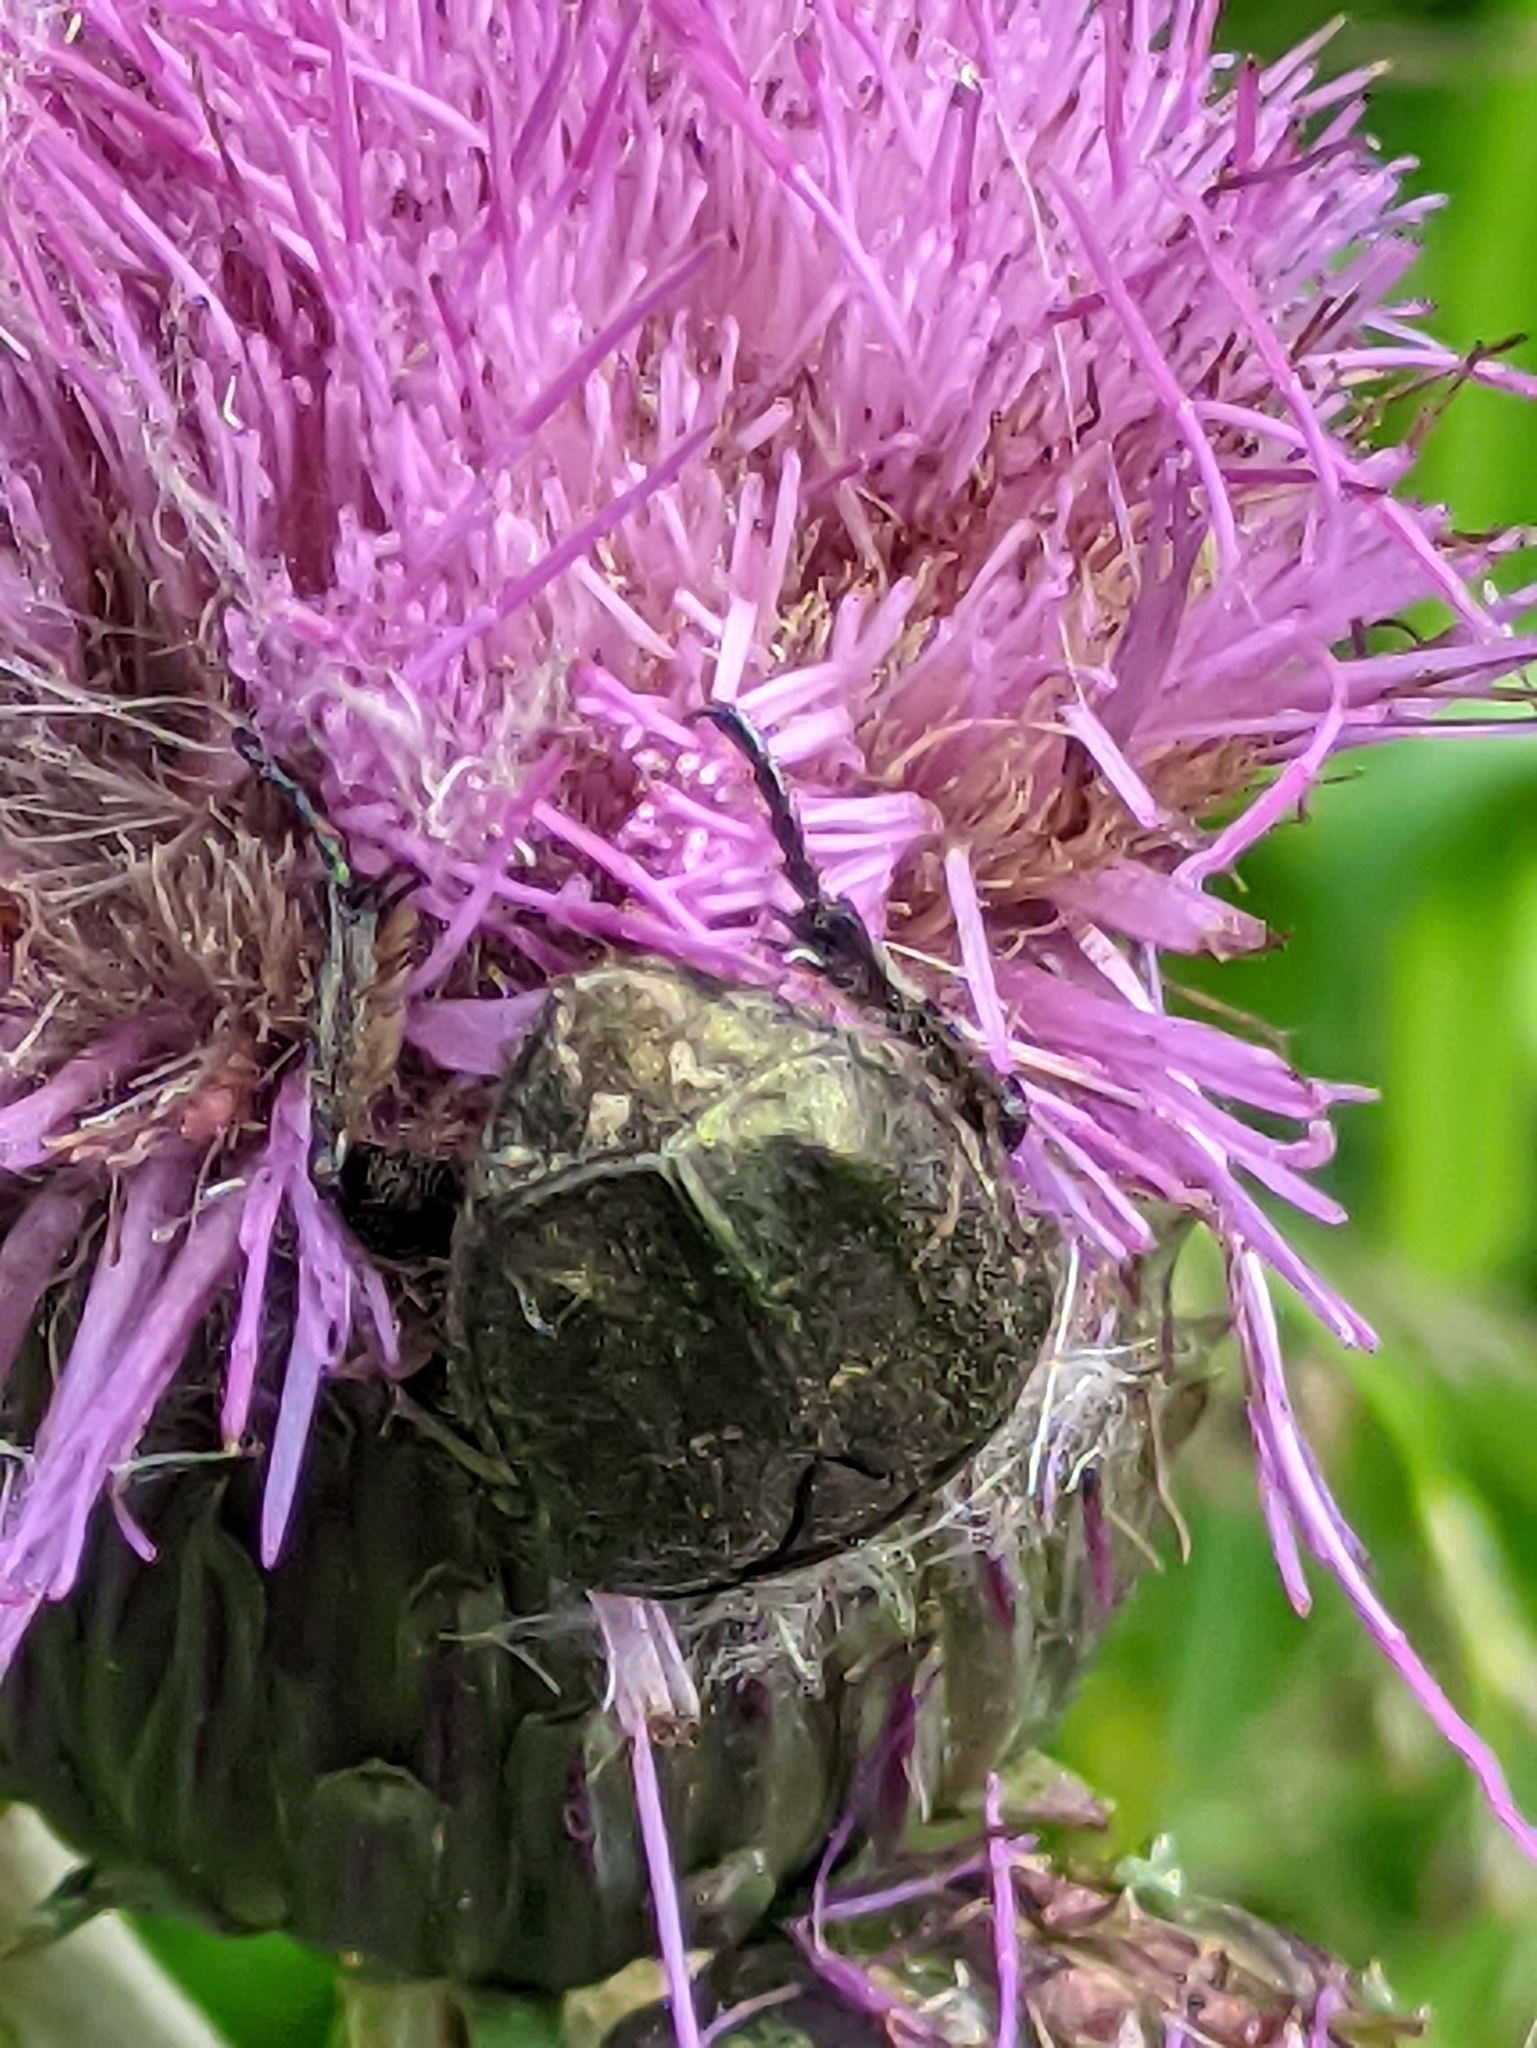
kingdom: Animalia
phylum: Arthropoda
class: Insecta
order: Coleoptera
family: Scarabaeidae
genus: Protaetia
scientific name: Protaetia cuprea
